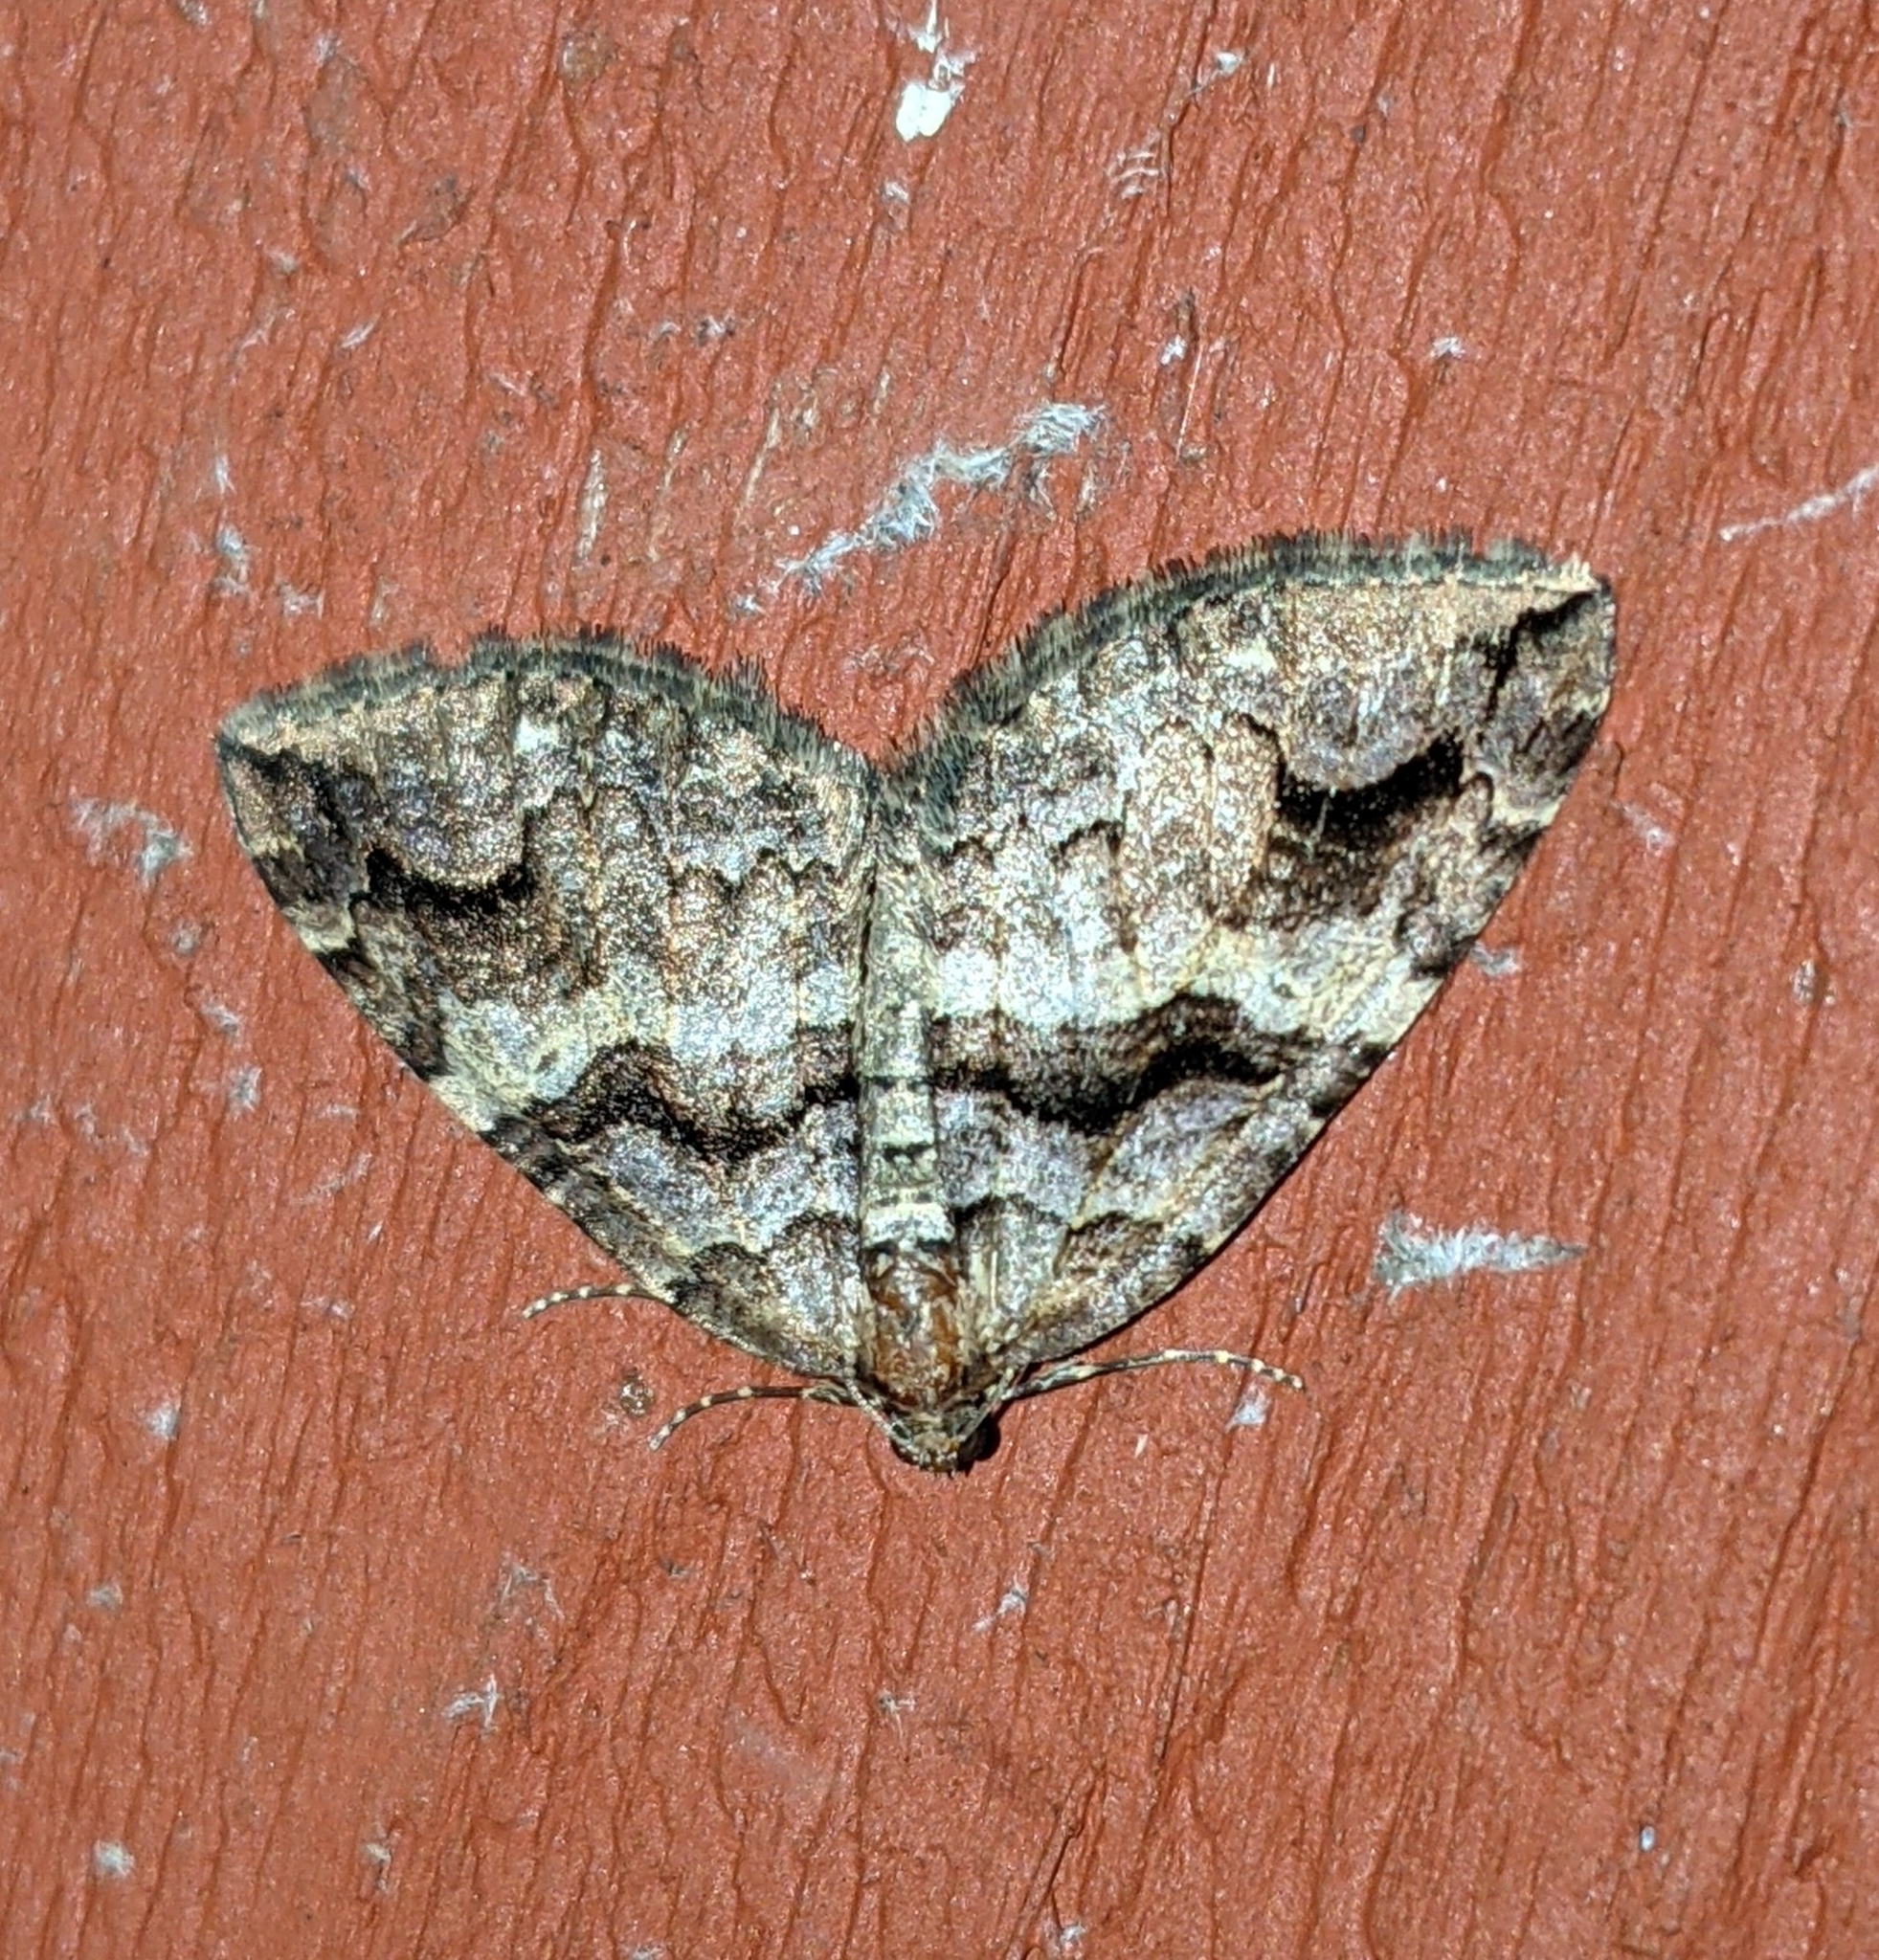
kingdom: Animalia
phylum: Arthropoda
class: Insecta
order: Lepidoptera
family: Geometridae
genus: Anticlea
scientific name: Anticlea vasiliata
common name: Variable carpet
